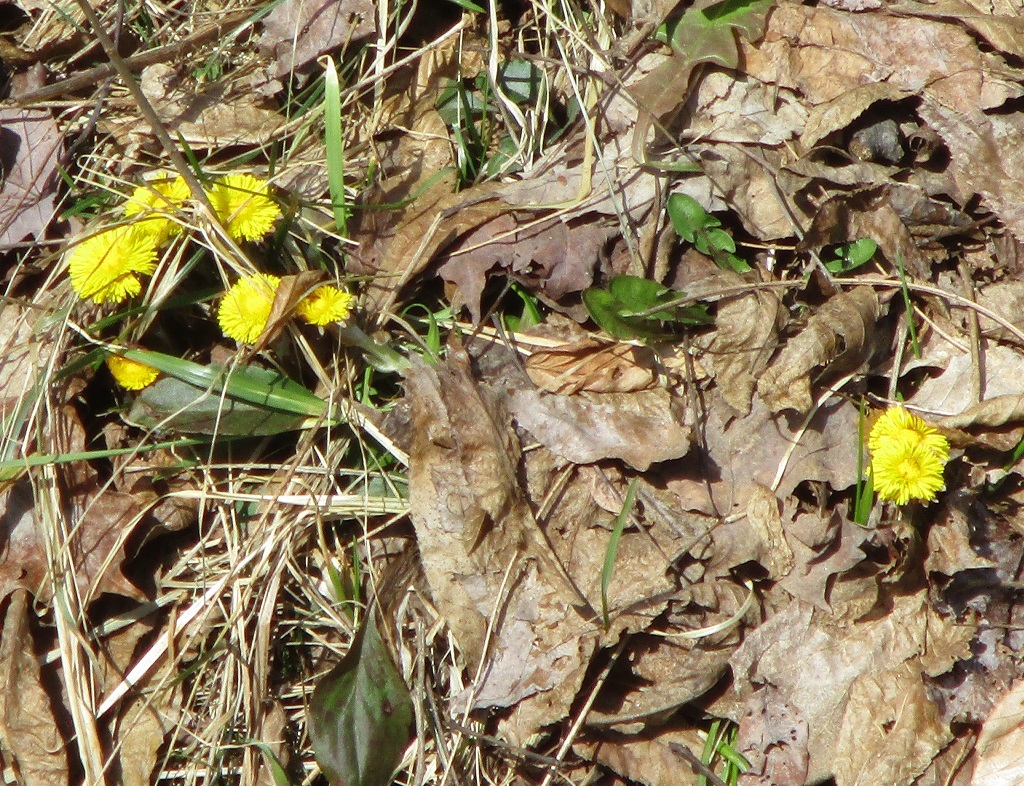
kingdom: Plantae
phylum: Tracheophyta
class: Magnoliopsida
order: Asterales
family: Asteraceae
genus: Tussilago
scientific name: Tussilago farfara
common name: Coltsfoot
